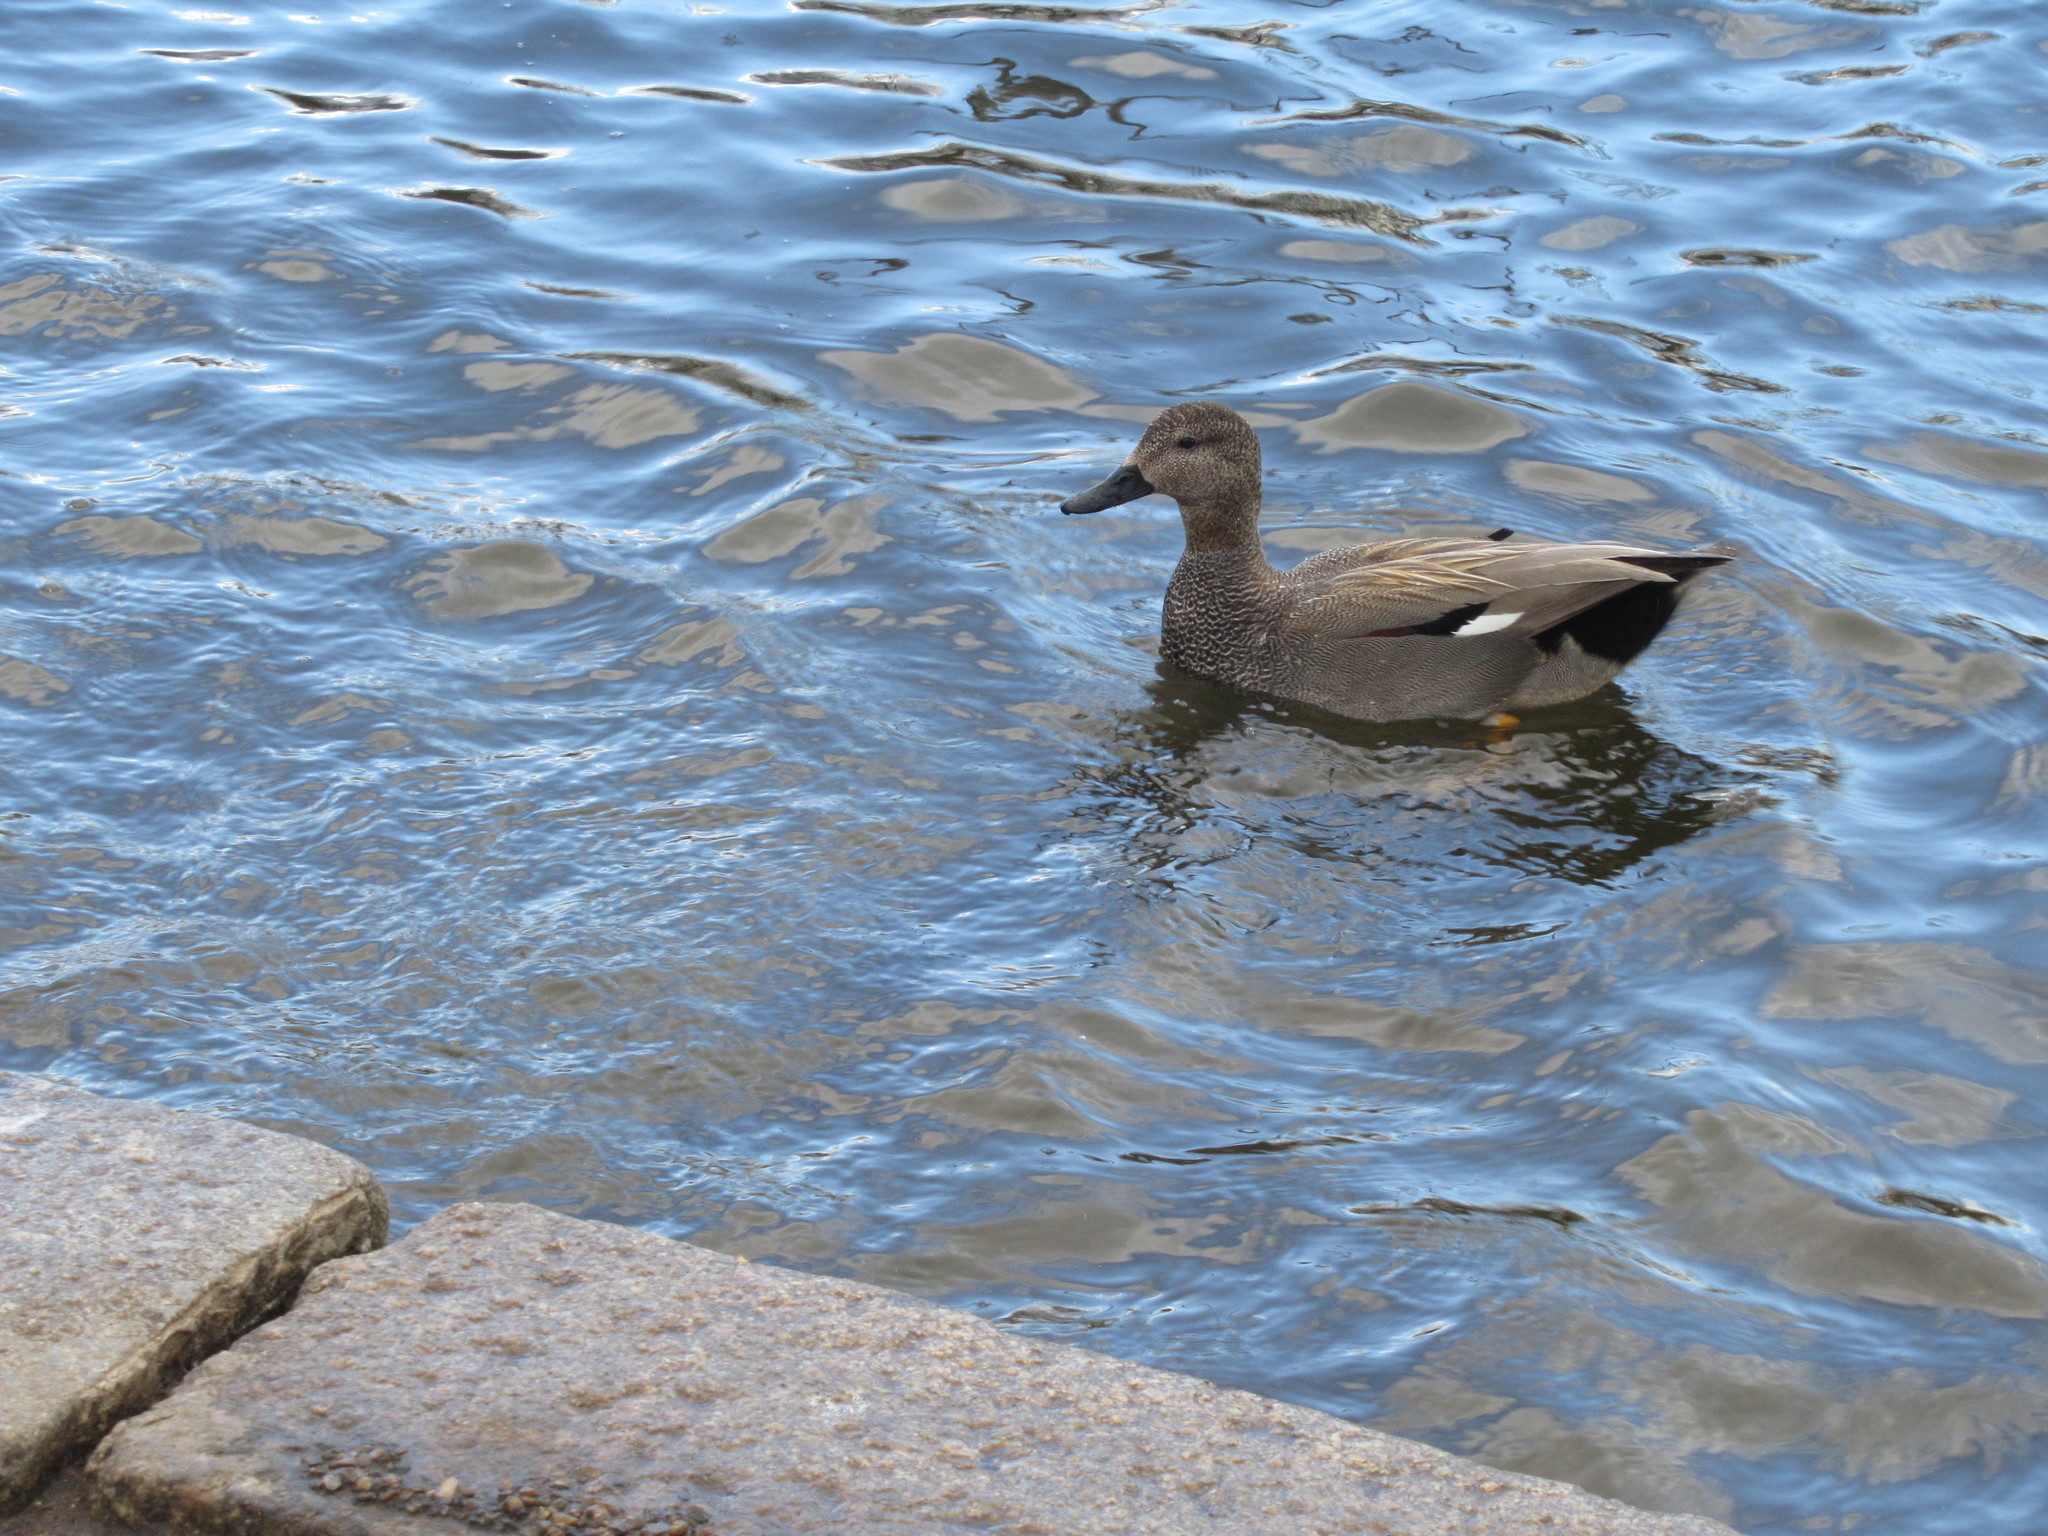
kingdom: Animalia
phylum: Chordata
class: Aves
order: Anseriformes
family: Anatidae
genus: Mareca
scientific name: Mareca strepera
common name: Gadwall
